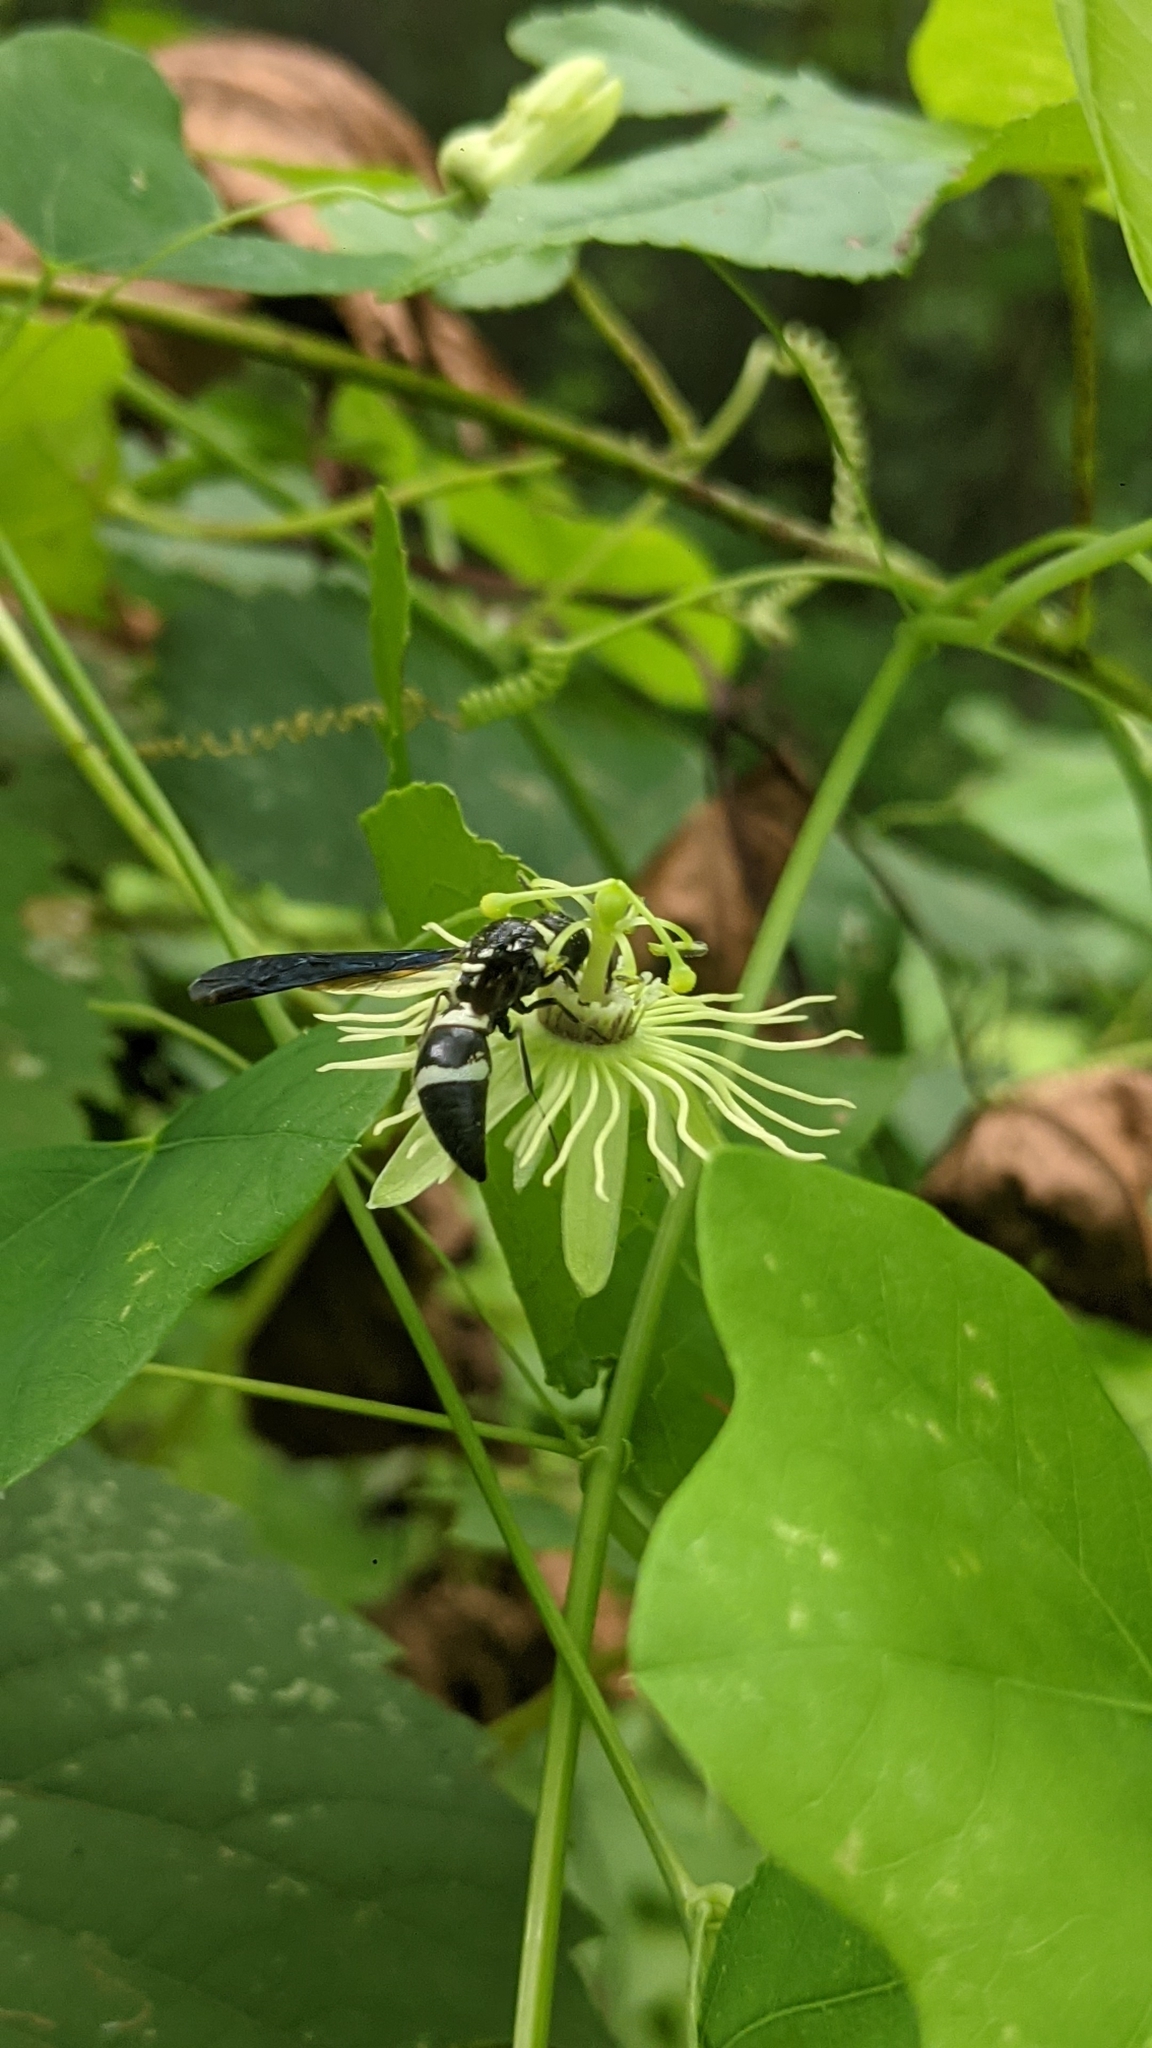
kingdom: Animalia
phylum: Arthropoda
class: Insecta
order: Hymenoptera
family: Eumenidae
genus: Pseudodynerus
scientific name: Pseudodynerus quadrisectus
